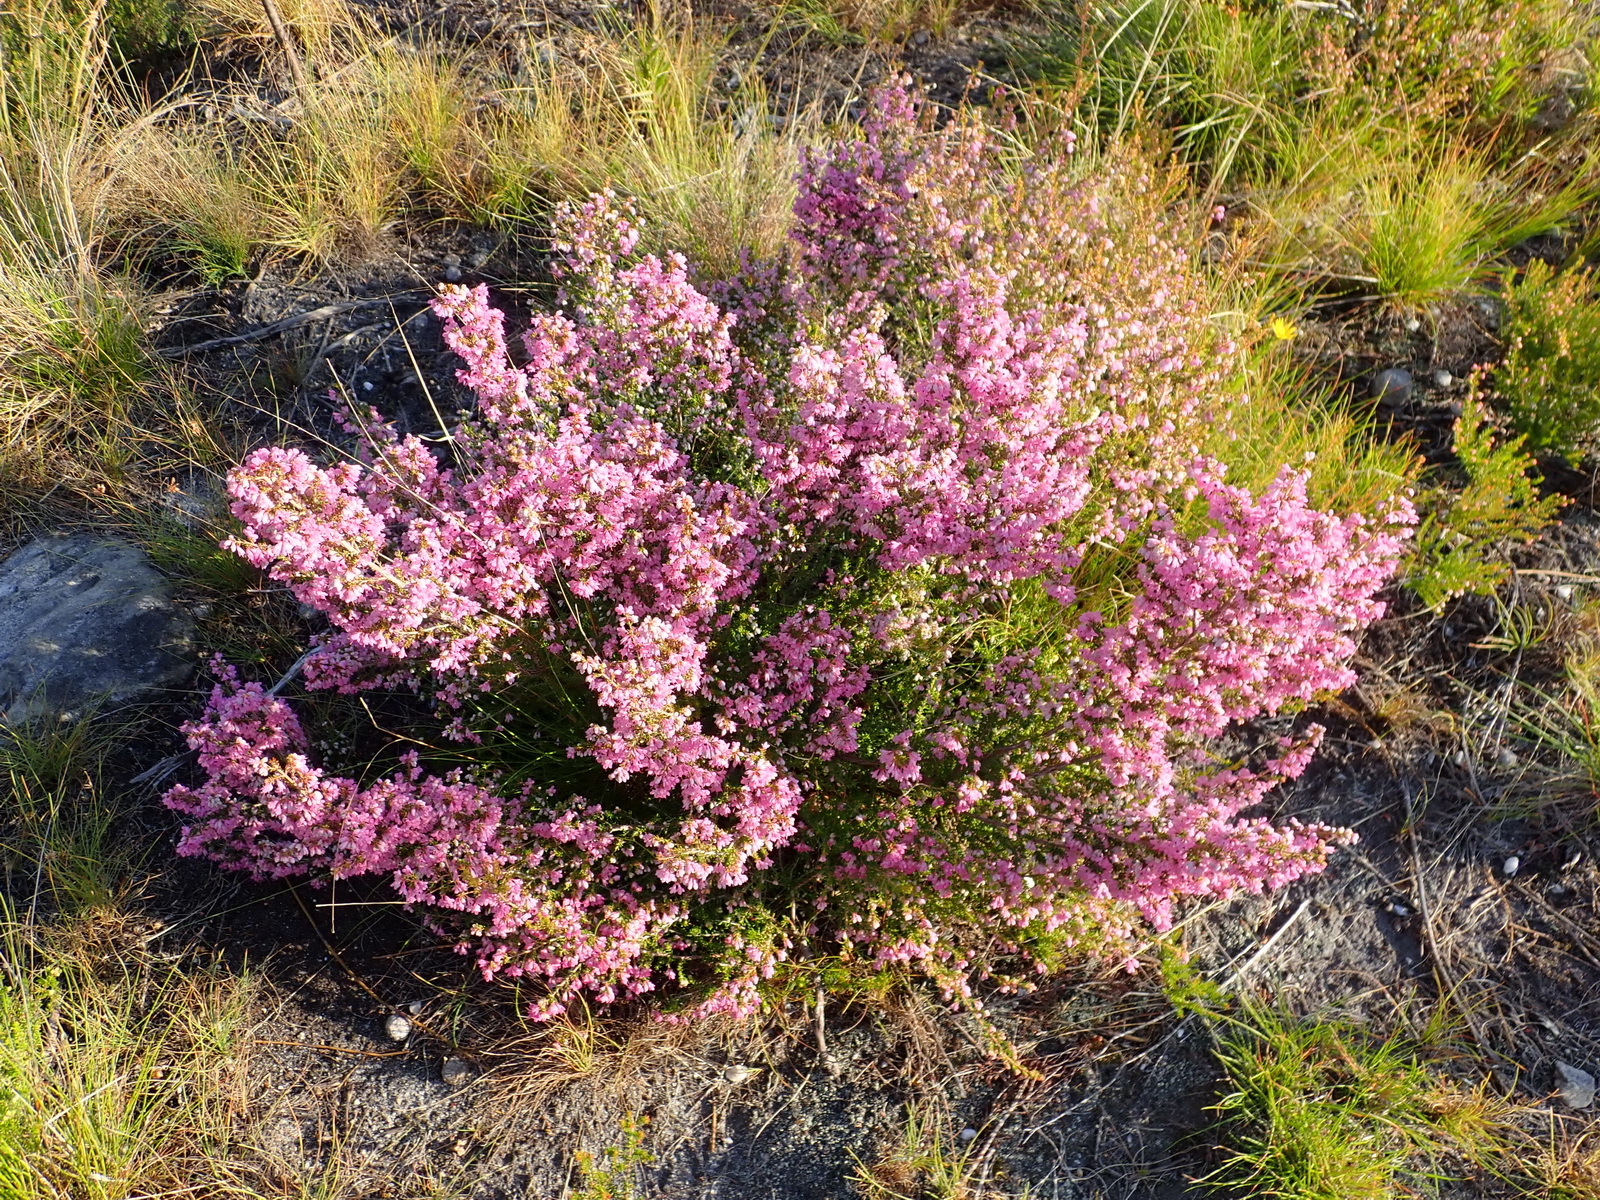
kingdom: Plantae
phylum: Tracheophyta
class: Magnoliopsida
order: Ericales
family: Ericaceae
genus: Erica
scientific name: Erica melanthera
